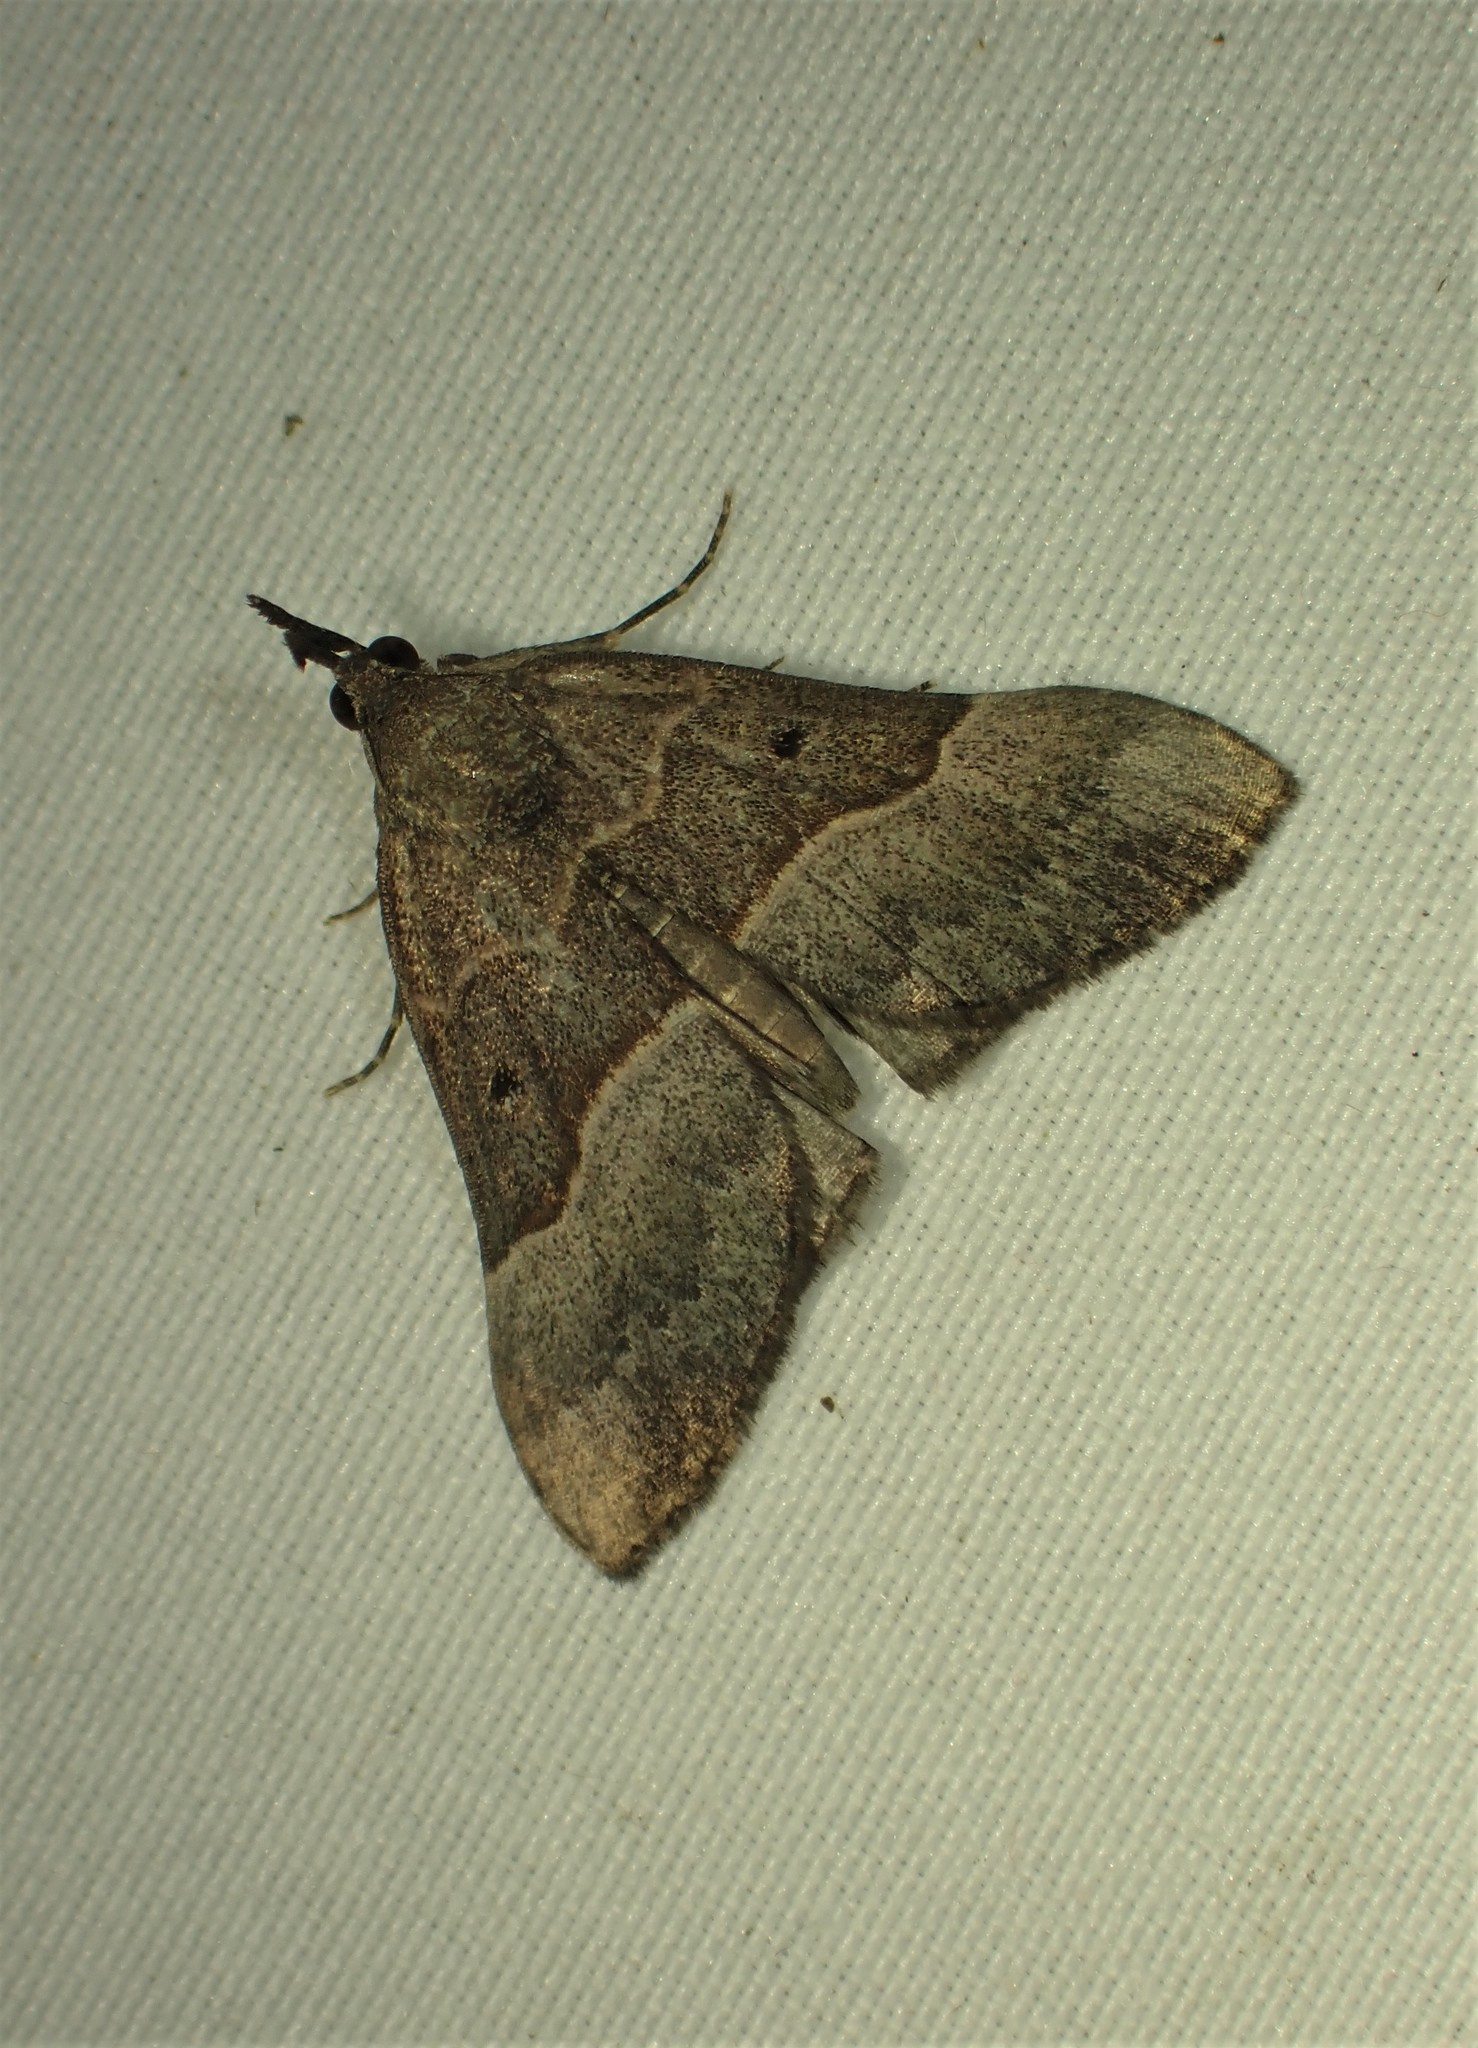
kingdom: Animalia
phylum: Arthropoda
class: Insecta
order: Lepidoptera
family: Erebidae
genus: Hypena
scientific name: Hypena eductalis
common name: Red-footed snout
